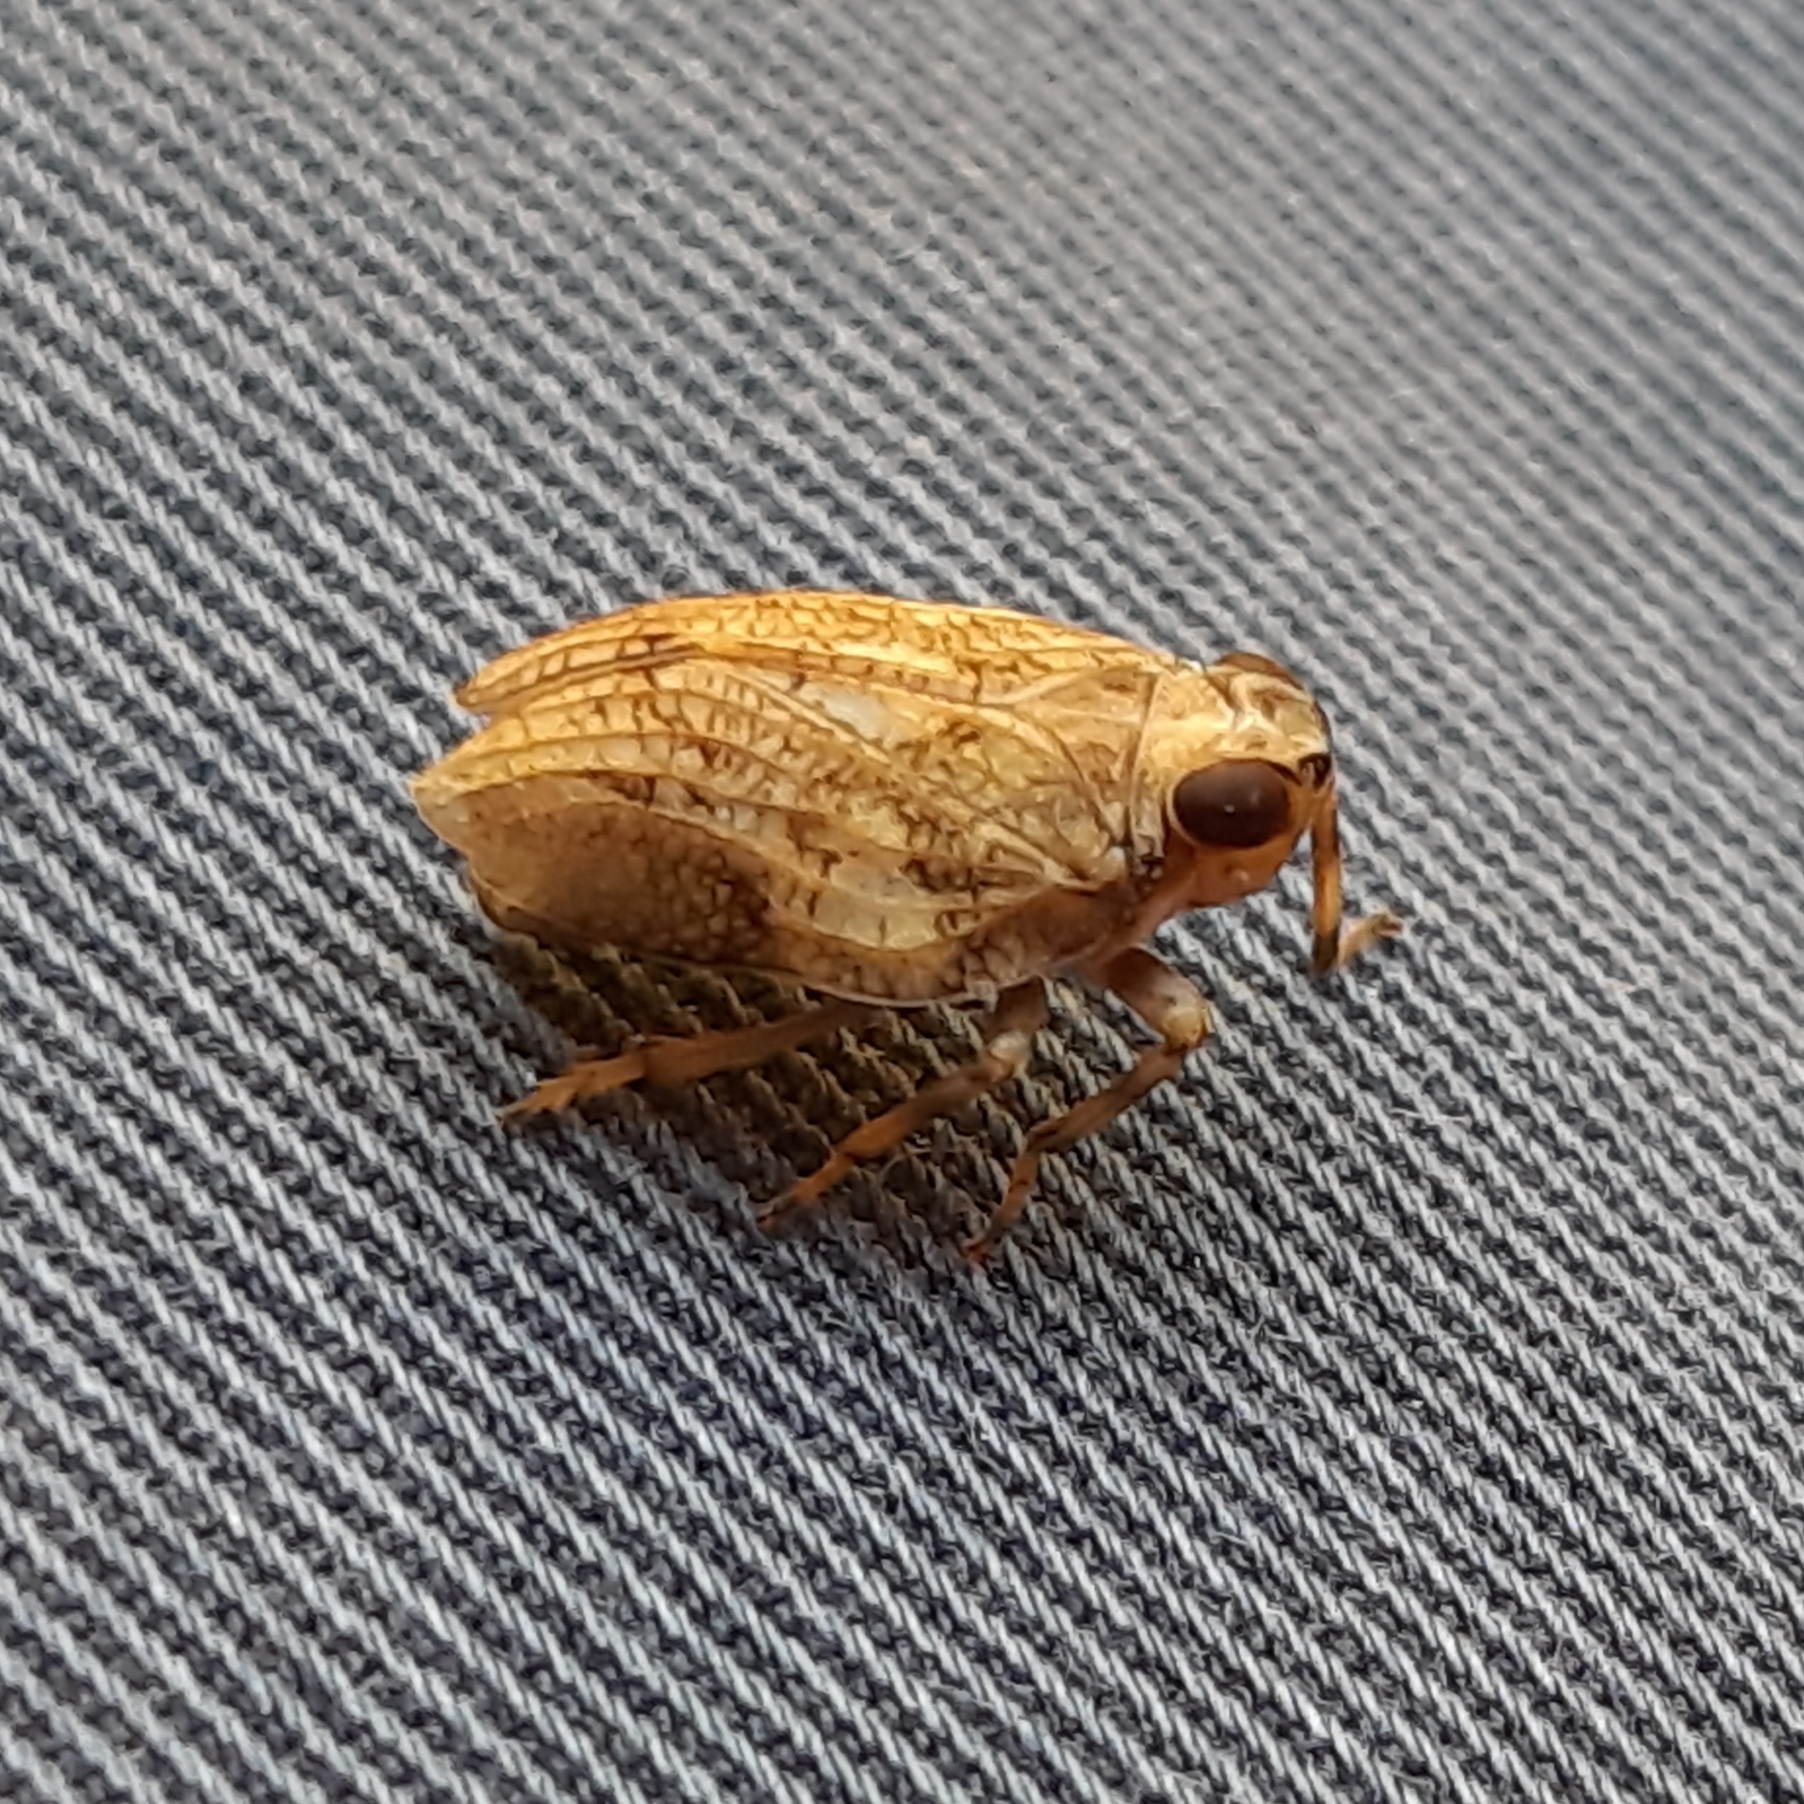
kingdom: Animalia
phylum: Arthropoda
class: Insecta
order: Hemiptera
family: Issidae
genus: Issus
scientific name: Issus coleoptratus
